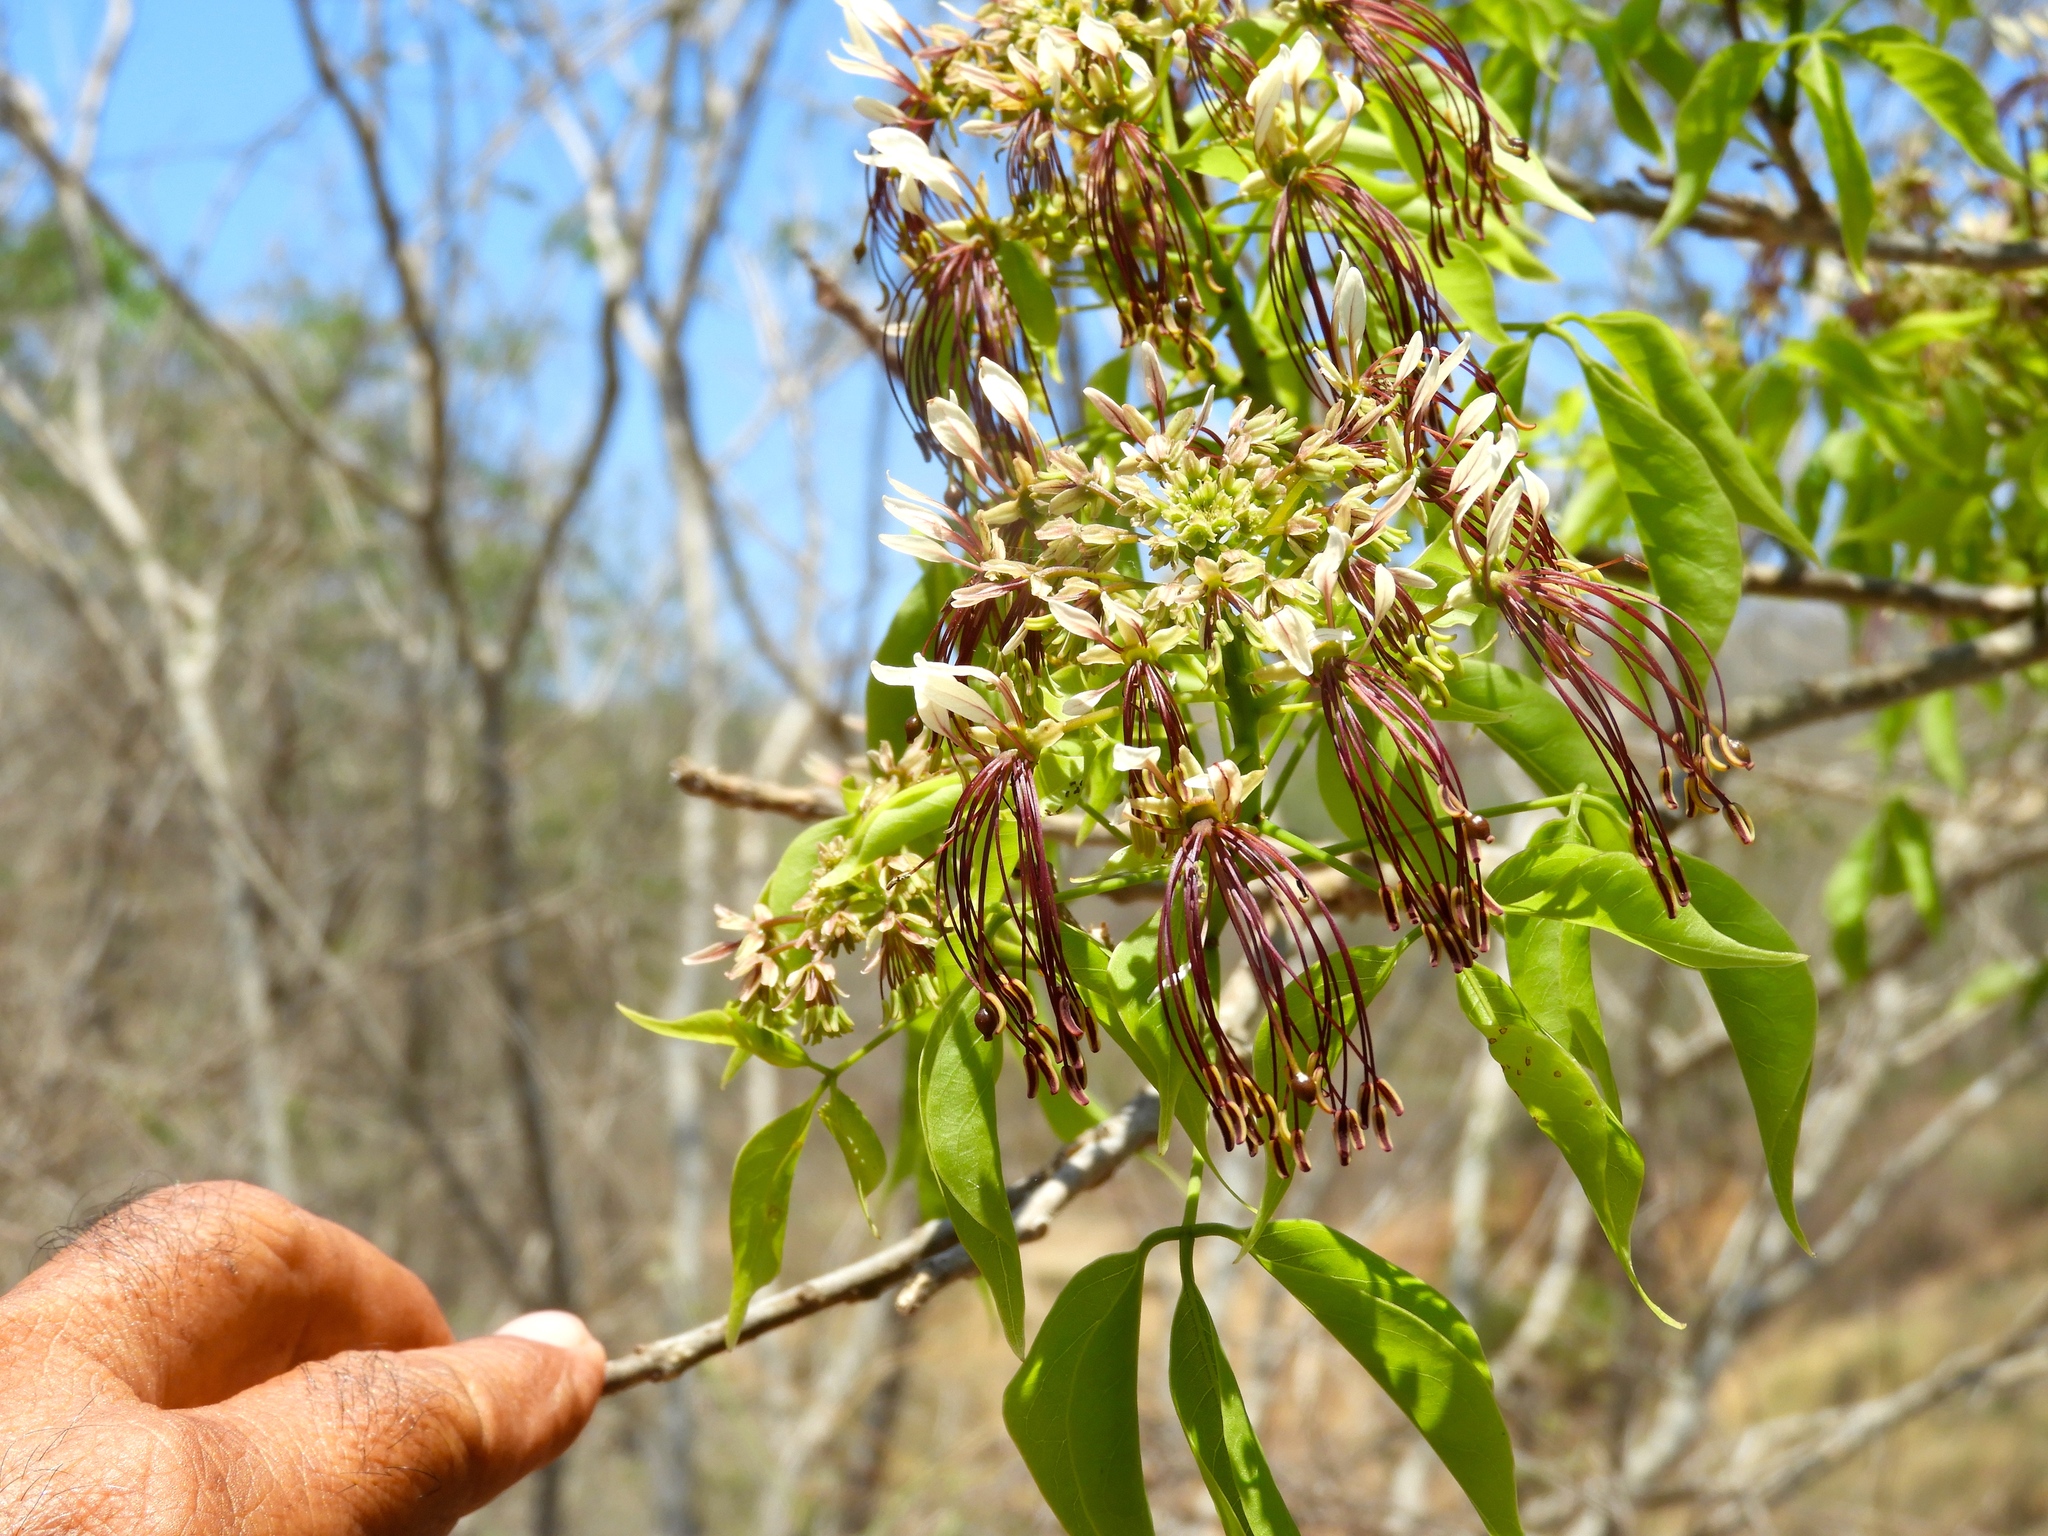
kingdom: Plantae
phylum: Tracheophyta
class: Magnoliopsida
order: Brassicales
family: Capparaceae
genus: Crateva
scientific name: Crateva tapia
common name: Garlic-pear
